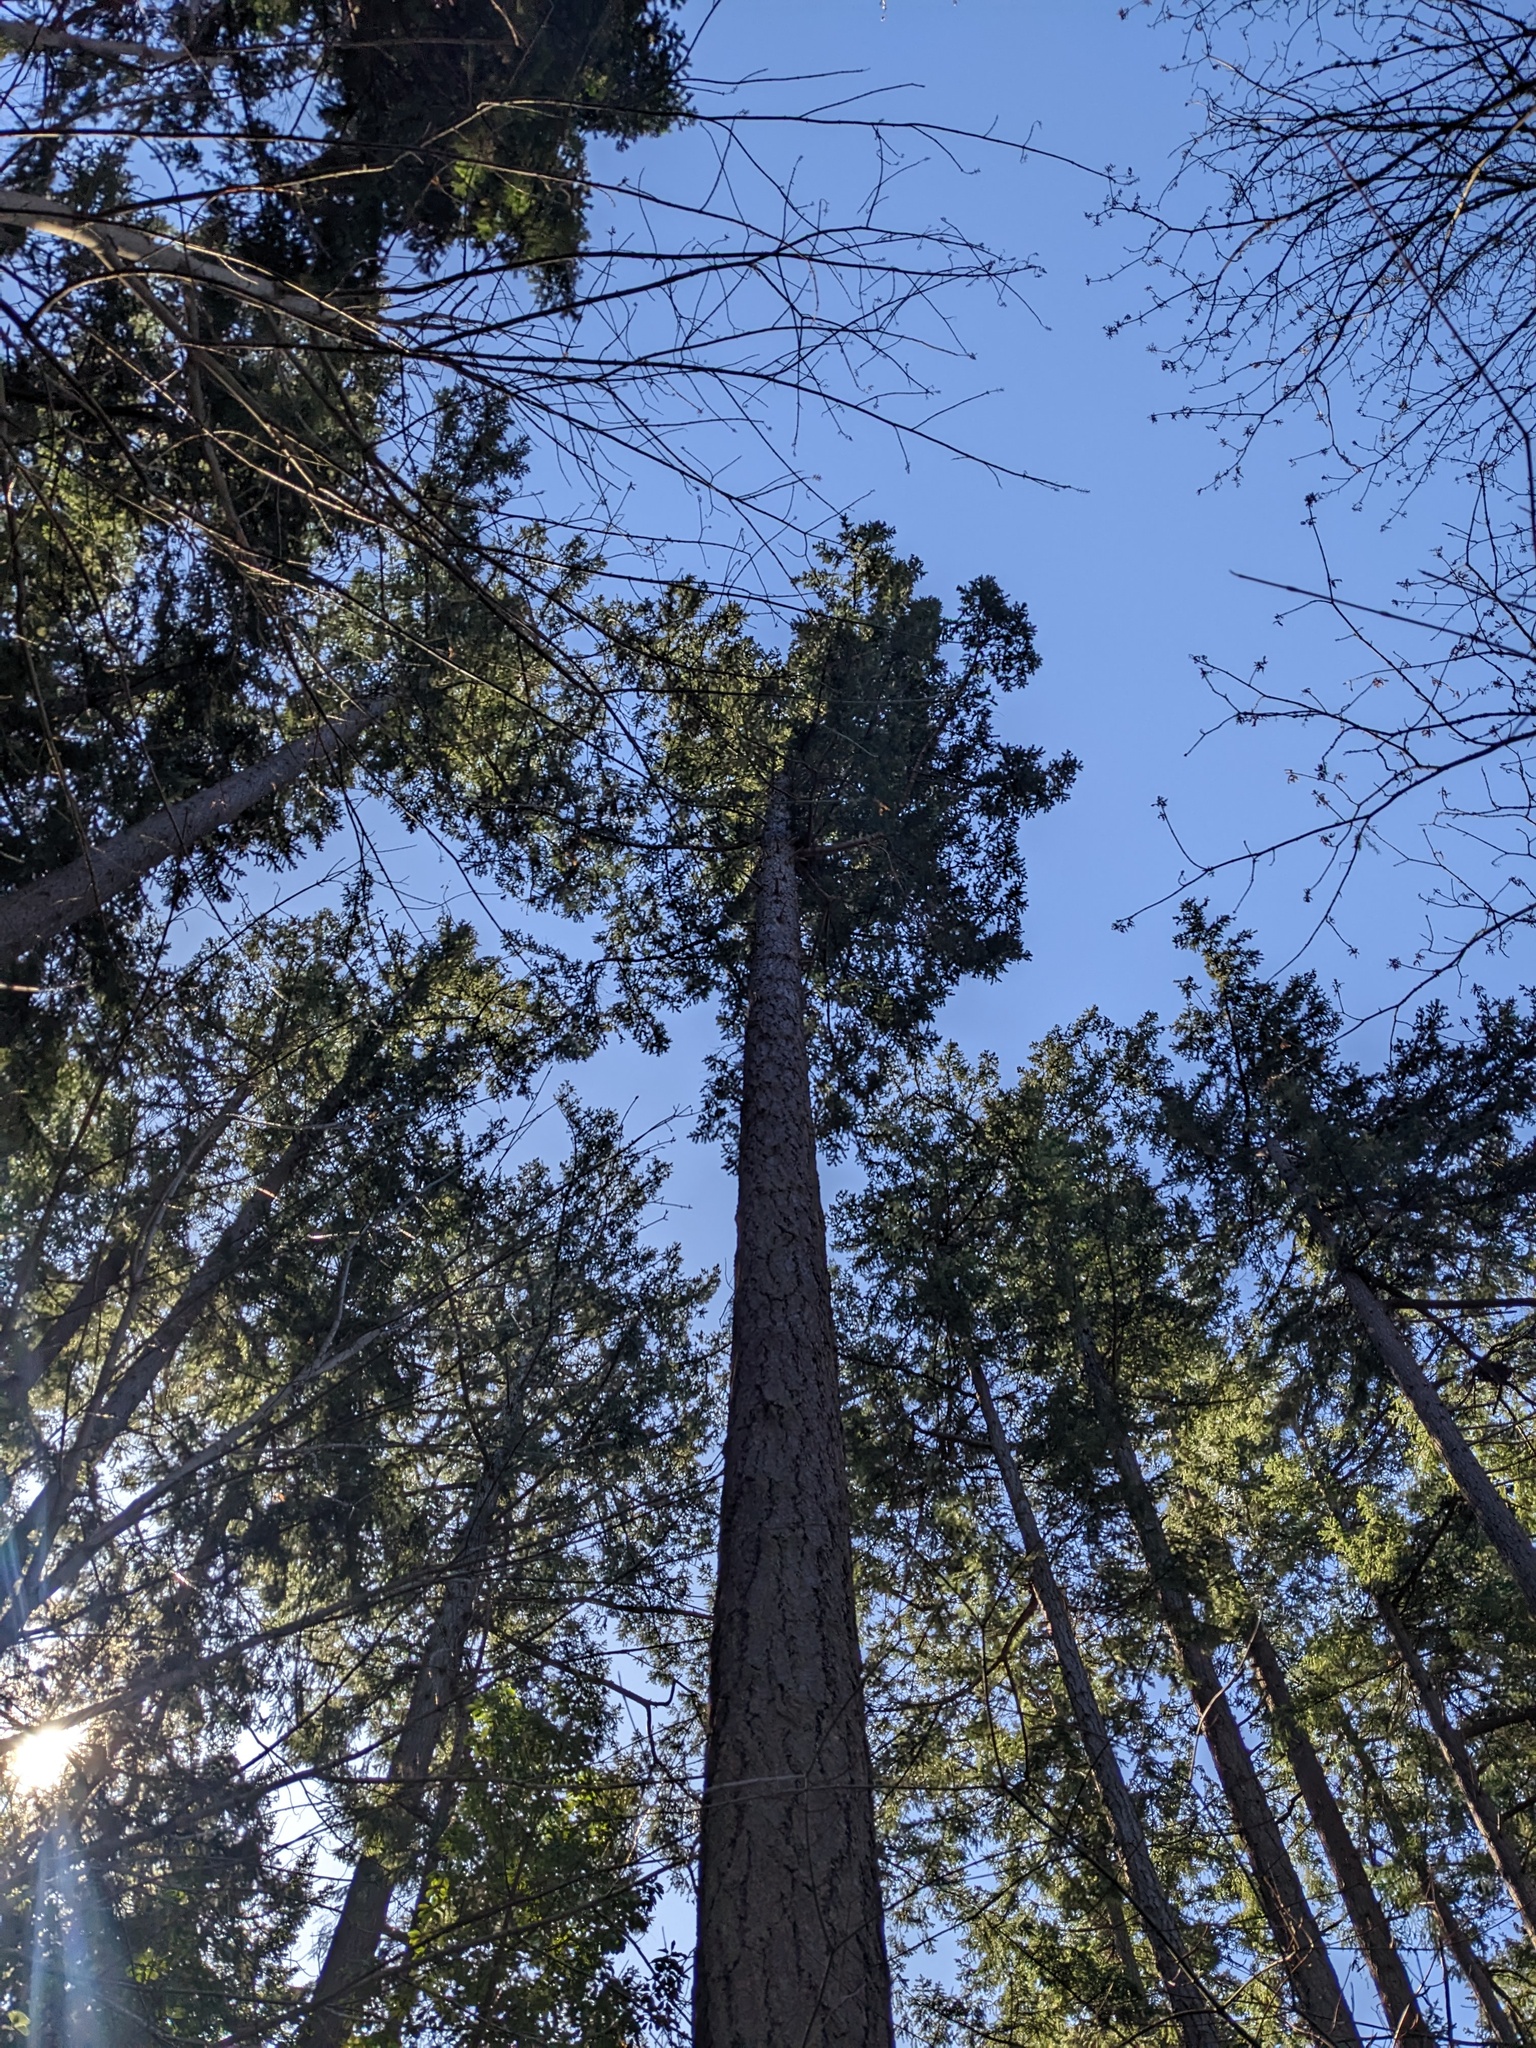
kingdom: Plantae
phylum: Tracheophyta
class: Pinopsida
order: Pinales
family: Pinaceae
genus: Pseudotsuga
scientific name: Pseudotsuga menziesii
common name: Douglas fir
